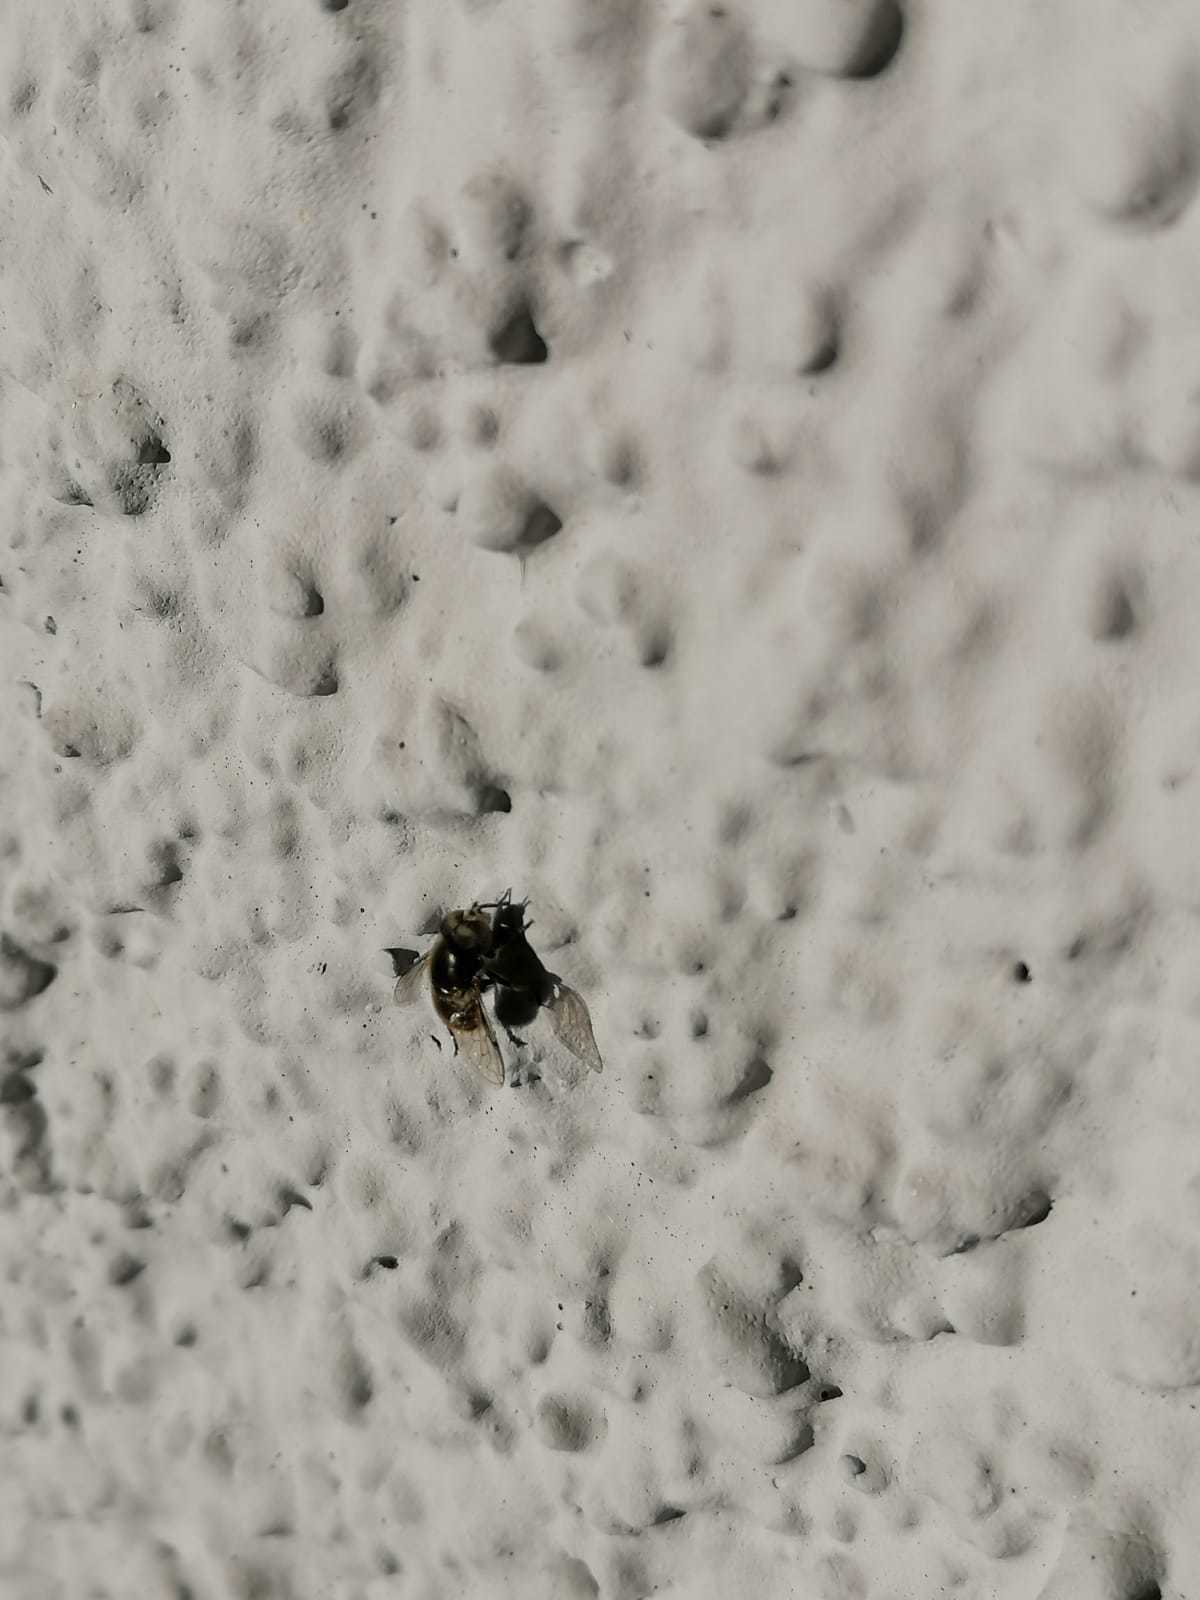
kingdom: Animalia
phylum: Arthropoda
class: Insecta
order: Diptera
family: Syrphidae
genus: Eristalinus
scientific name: Eristalinus aeneus
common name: Syrphid fly
